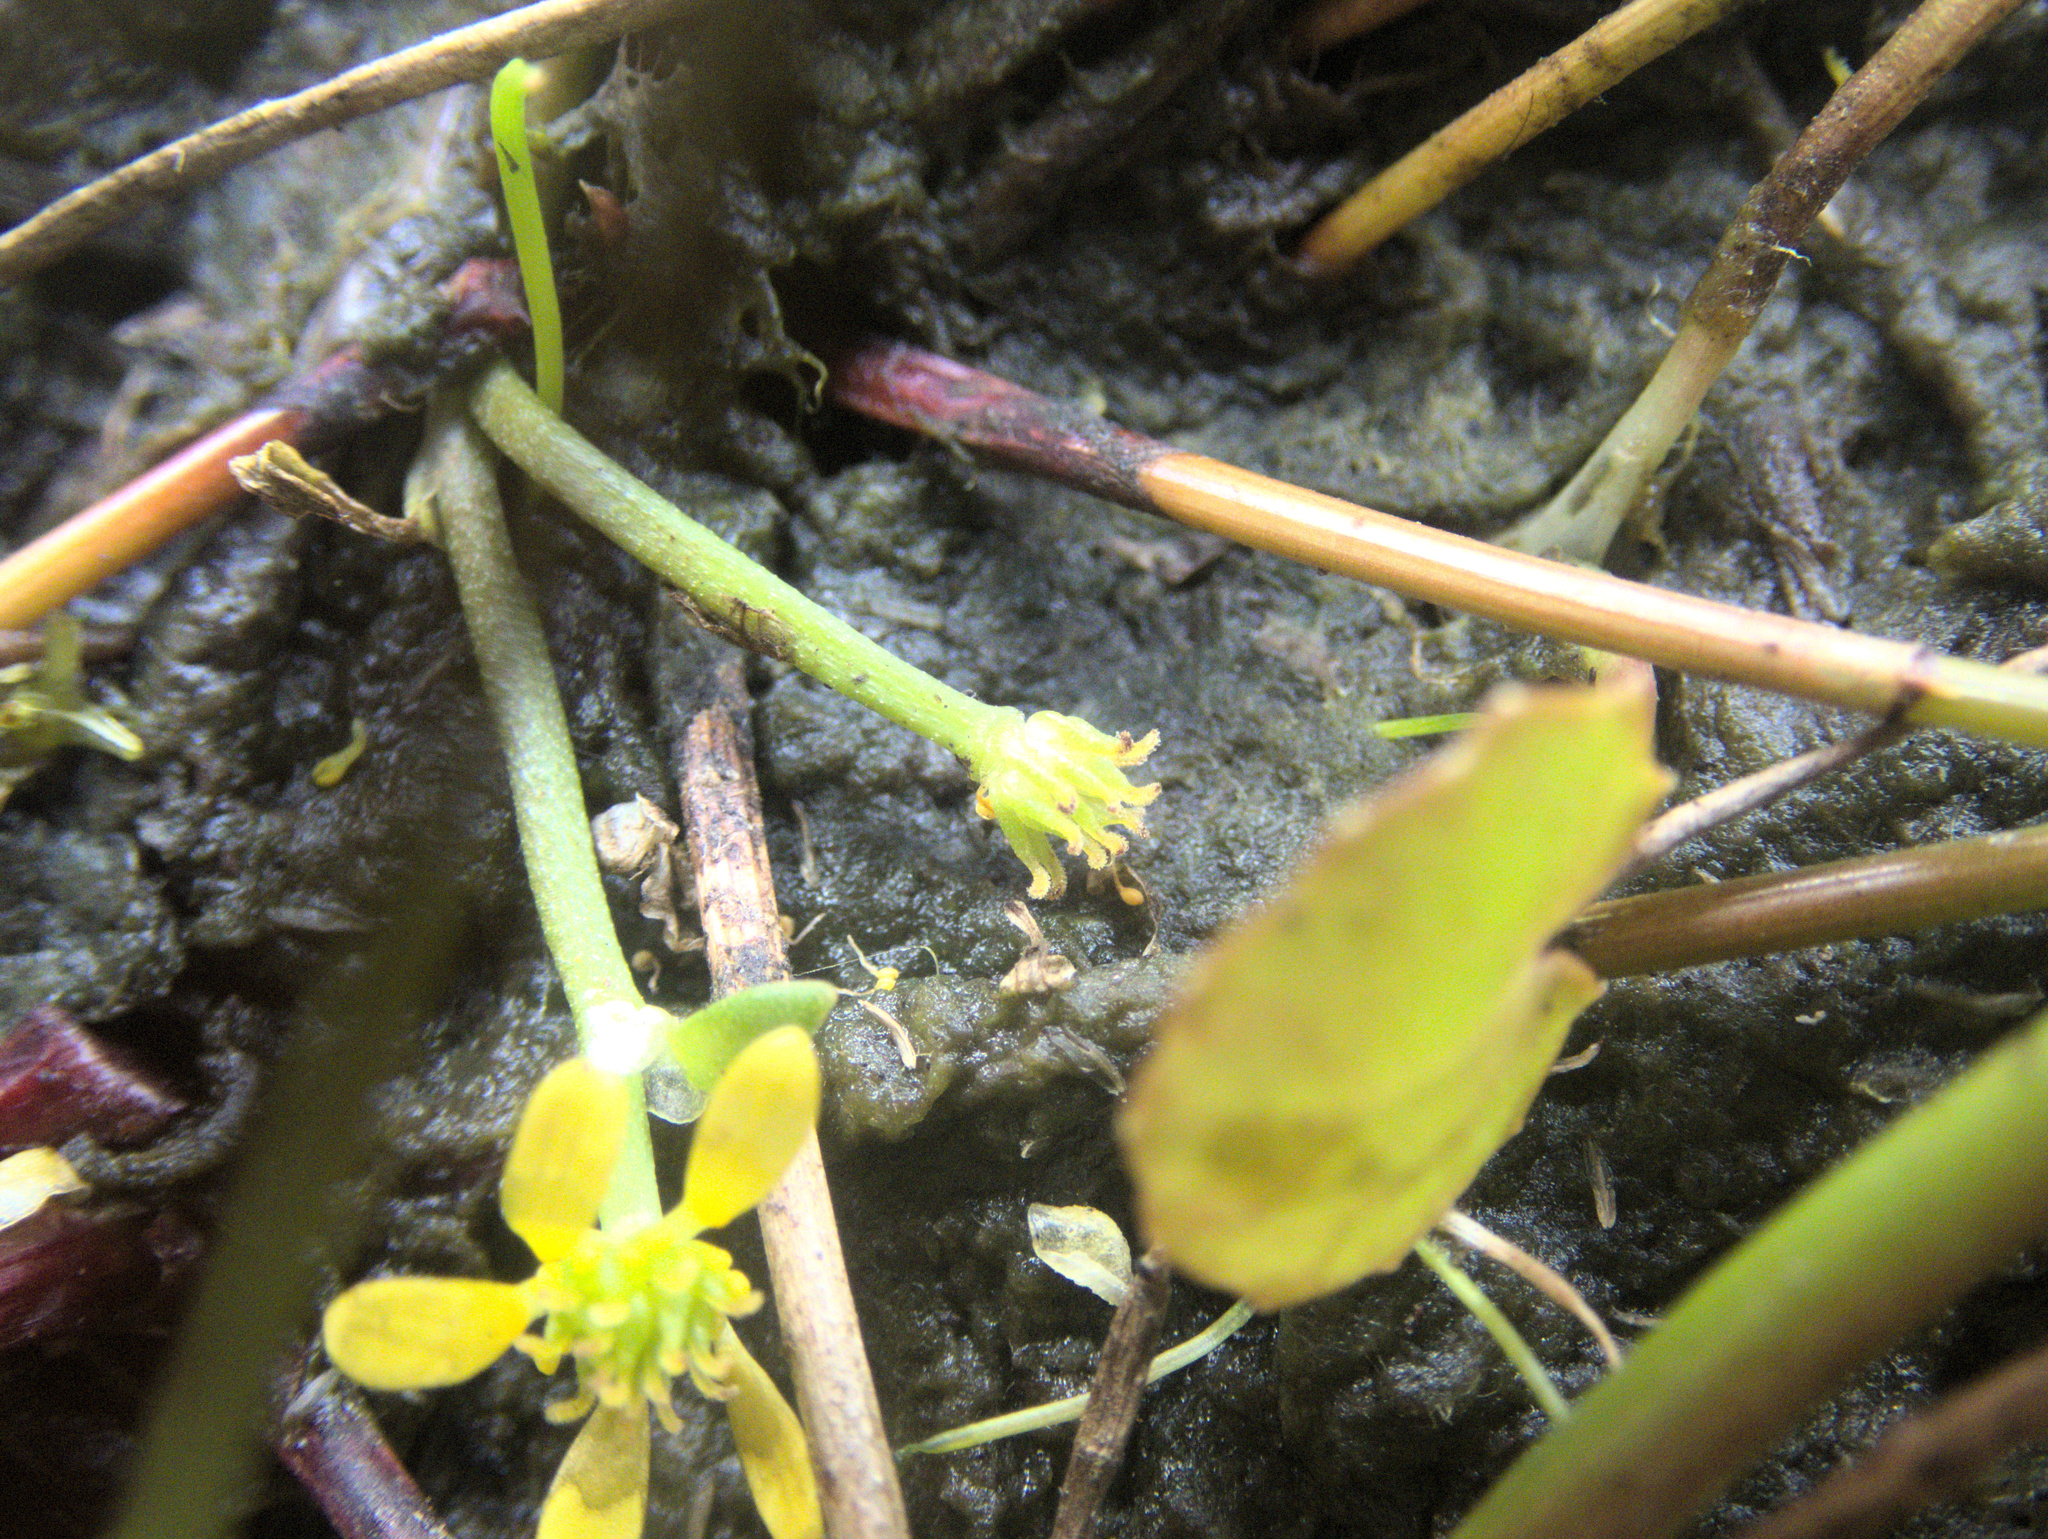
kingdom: Plantae
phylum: Tracheophyta
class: Magnoliopsida
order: Ranunculales
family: Ranunculaceae
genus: Ranunculus
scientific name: Ranunculus amphitrichus
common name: Small river buttercup
